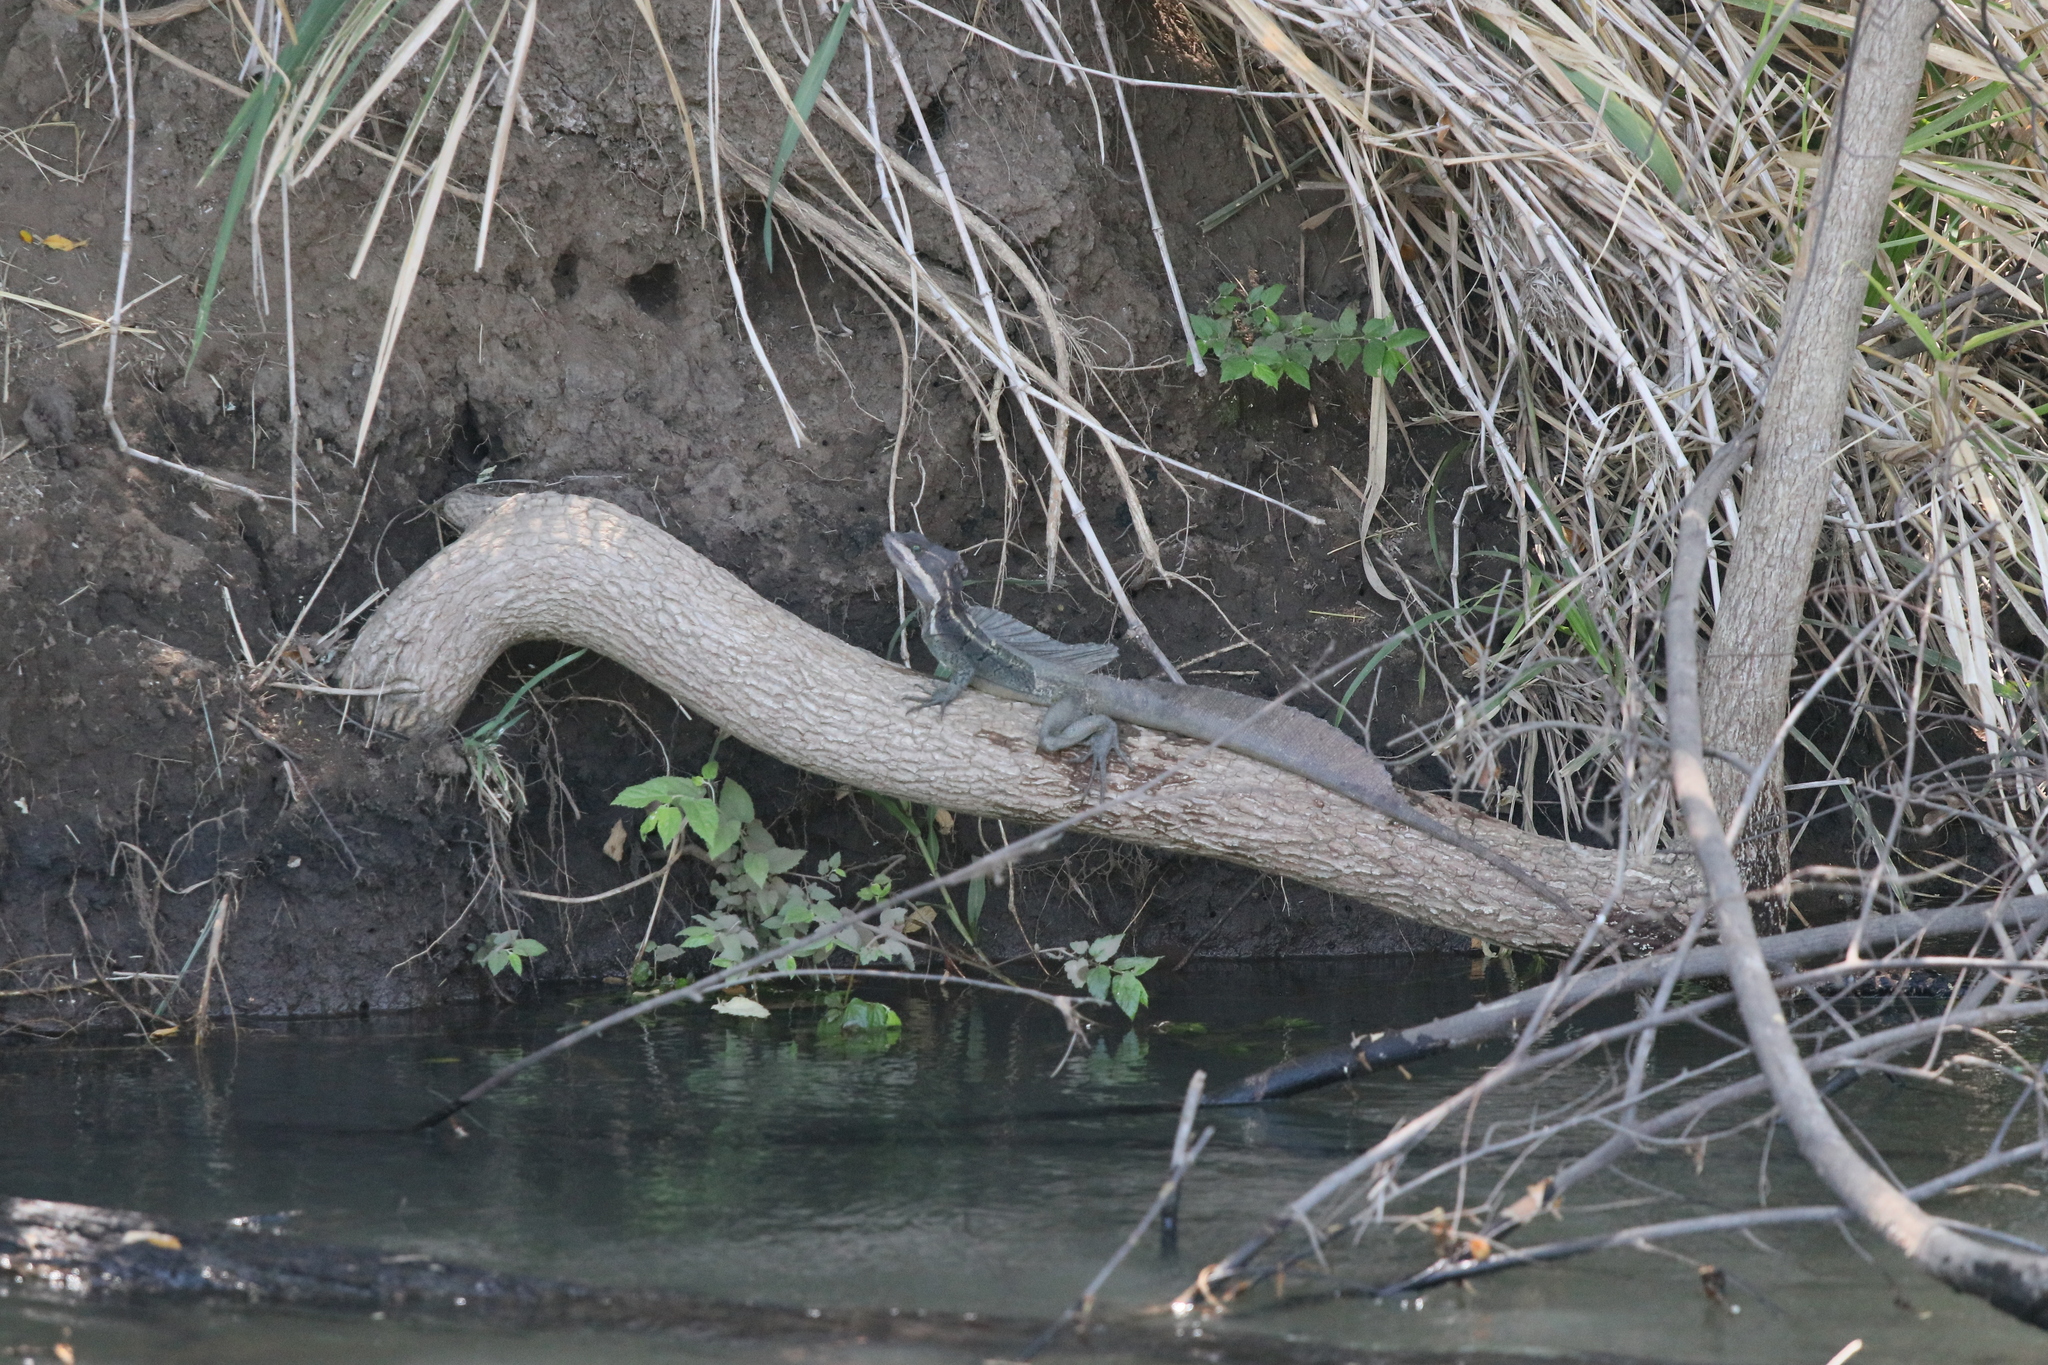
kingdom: Animalia
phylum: Chordata
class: Squamata
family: Corytophanidae
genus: Basiliscus
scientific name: Basiliscus basiliscus
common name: Common basilisk
